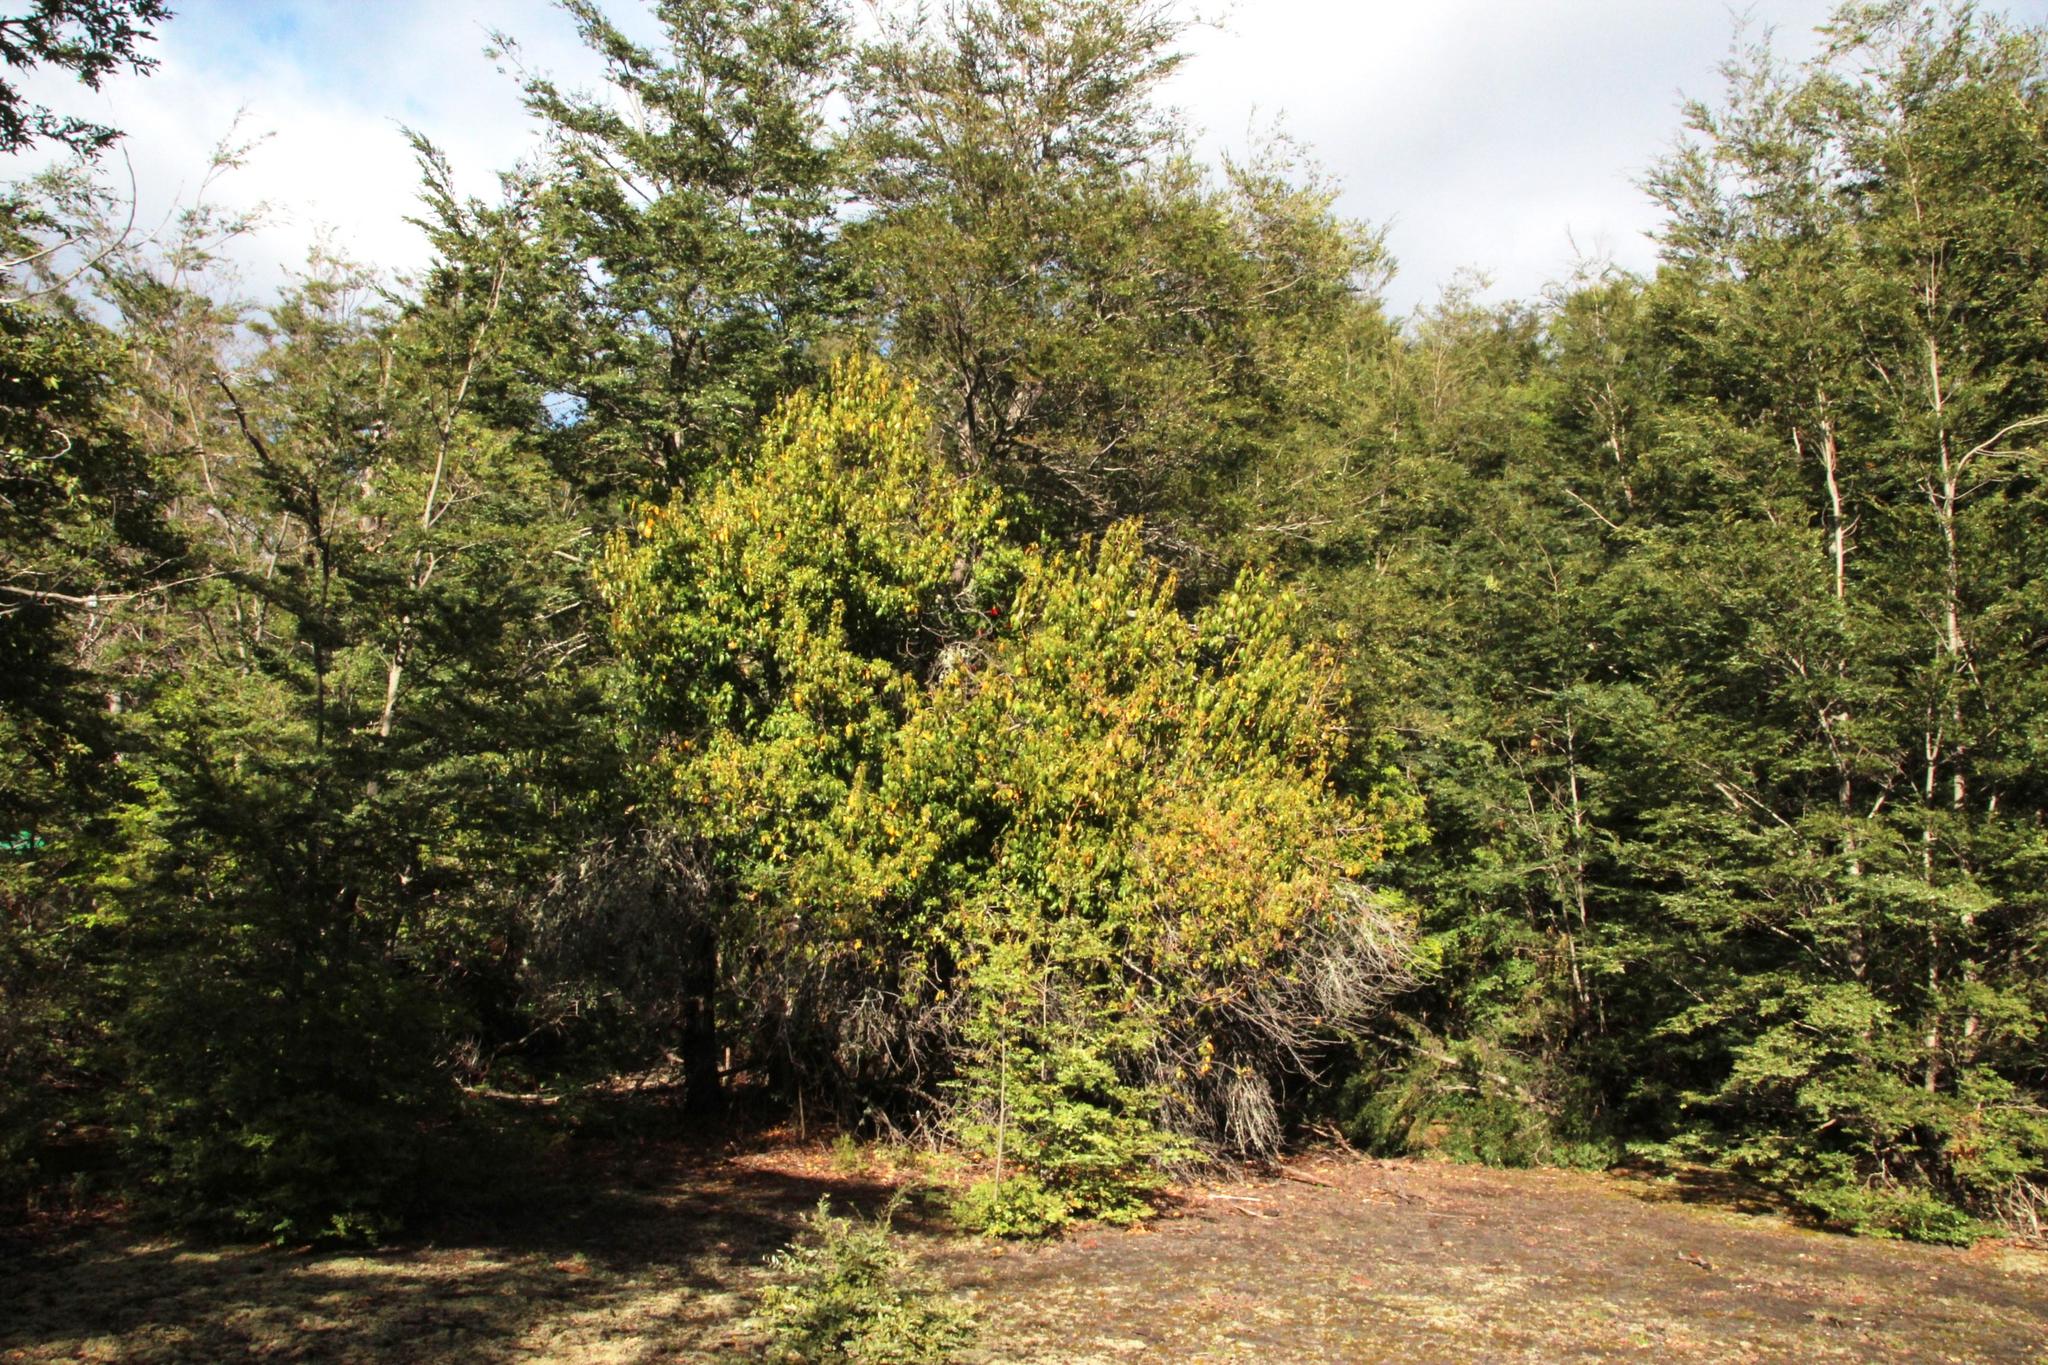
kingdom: Plantae
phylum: Tracheophyta
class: Magnoliopsida
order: Oxalidales
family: Elaeocarpaceae
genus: Aristotelia
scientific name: Aristotelia chilensis
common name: Maquei
